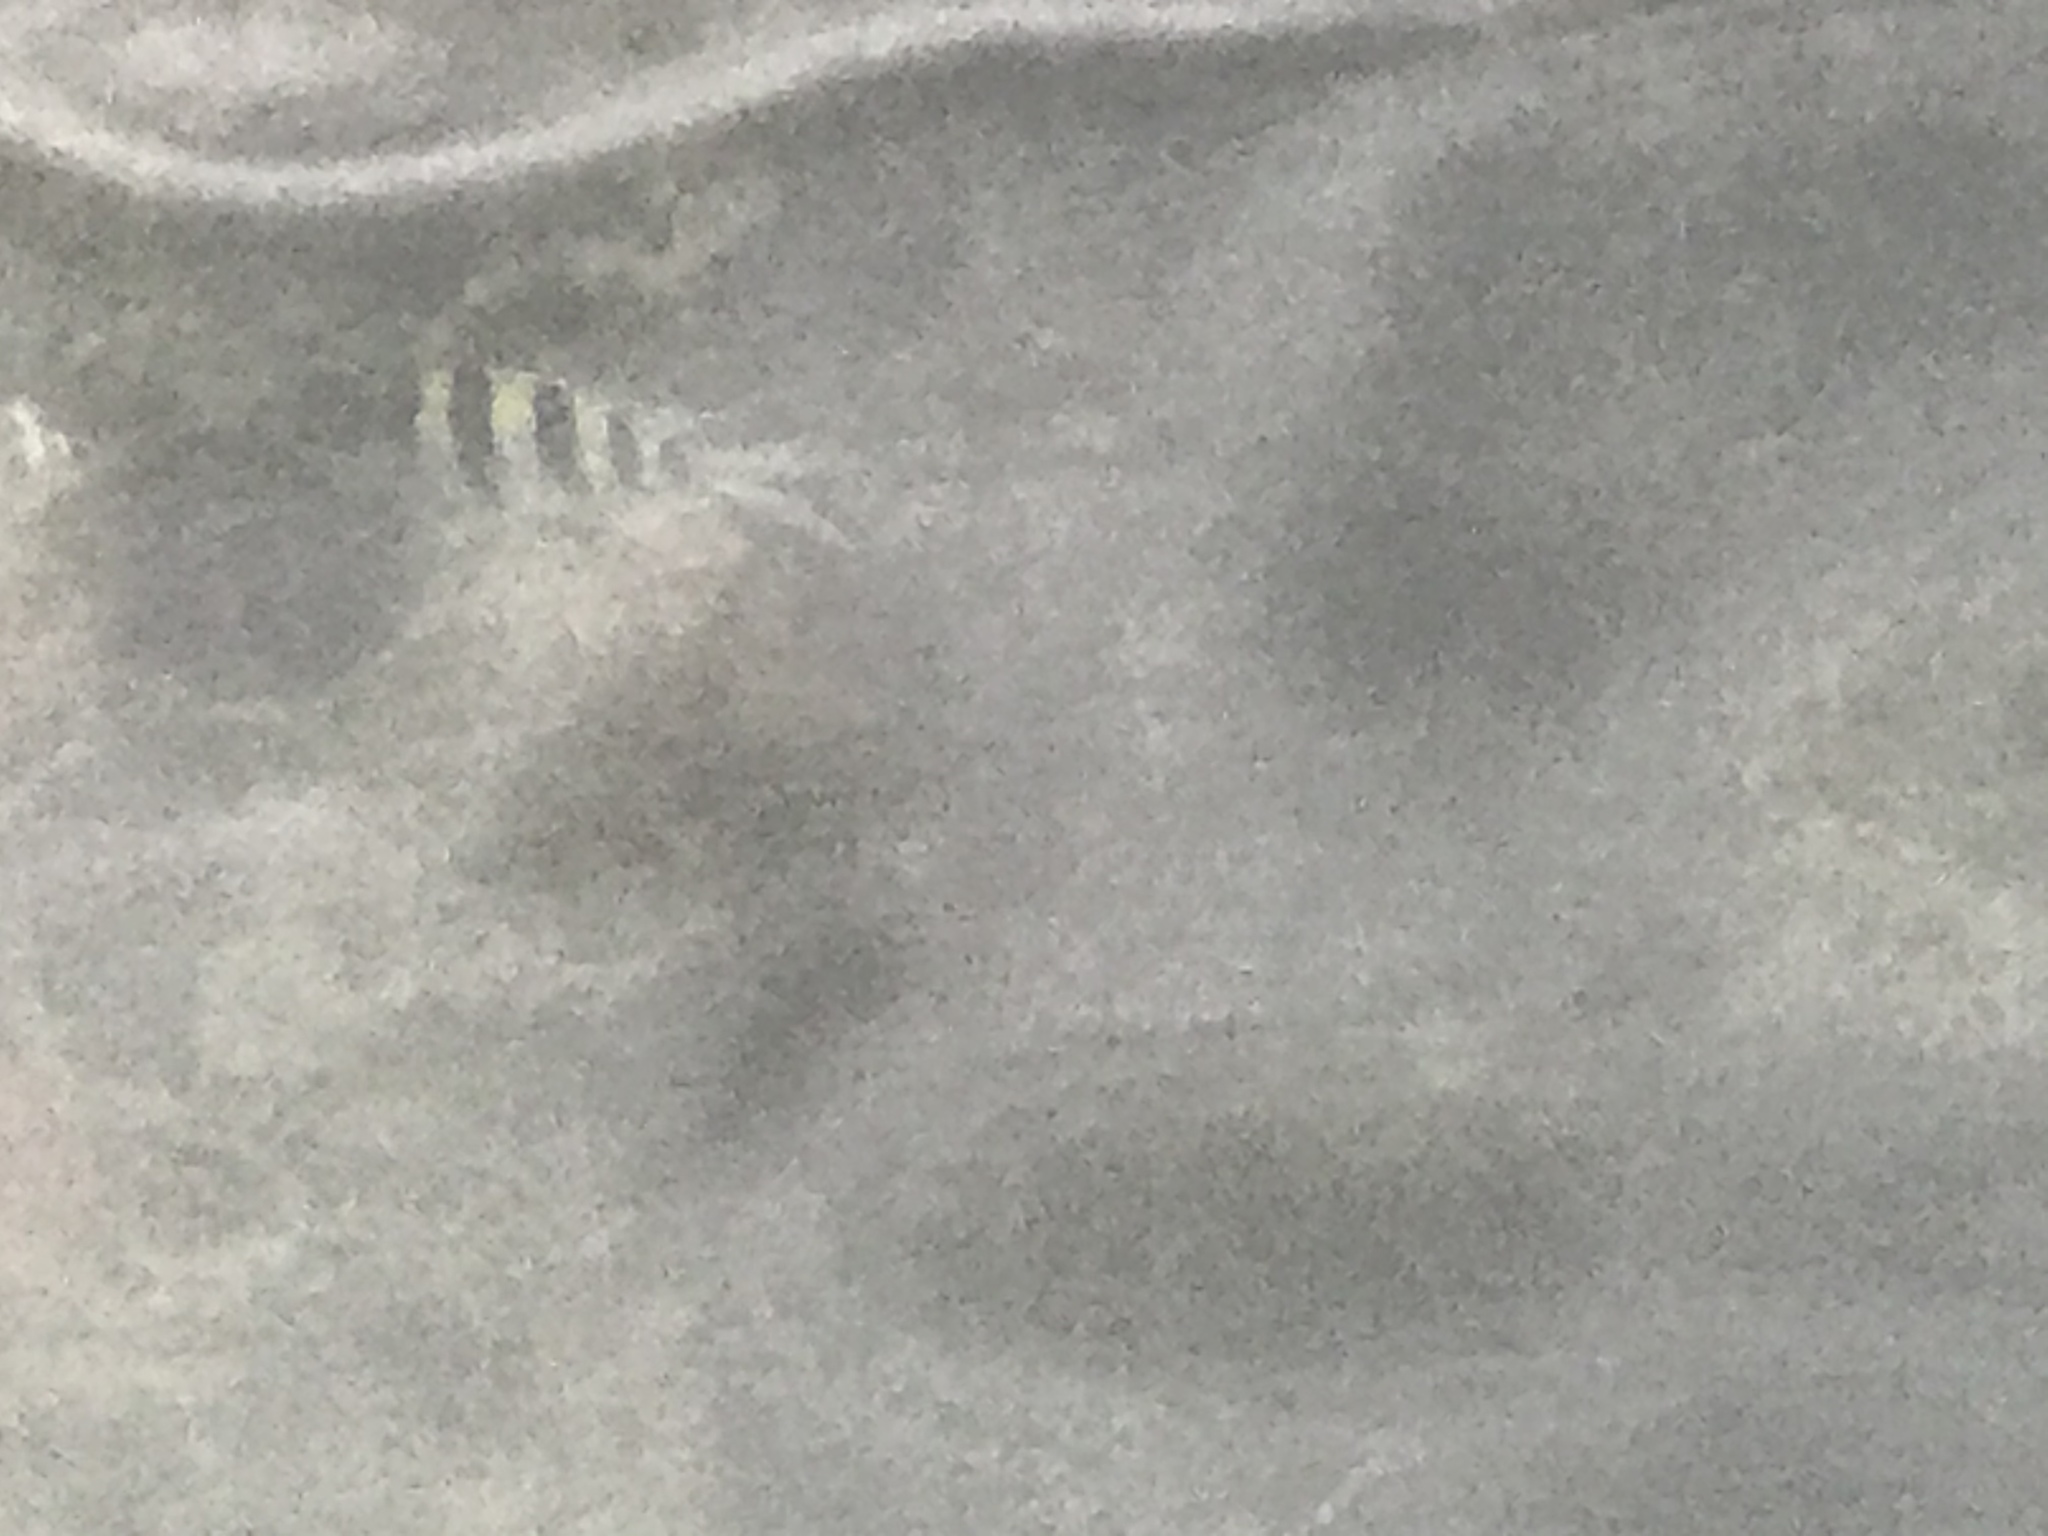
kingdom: Animalia
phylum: Chordata
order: Perciformes
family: Pomacentridae
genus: Abudefduf
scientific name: Abudefduf saxatilis
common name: Sergeant major
